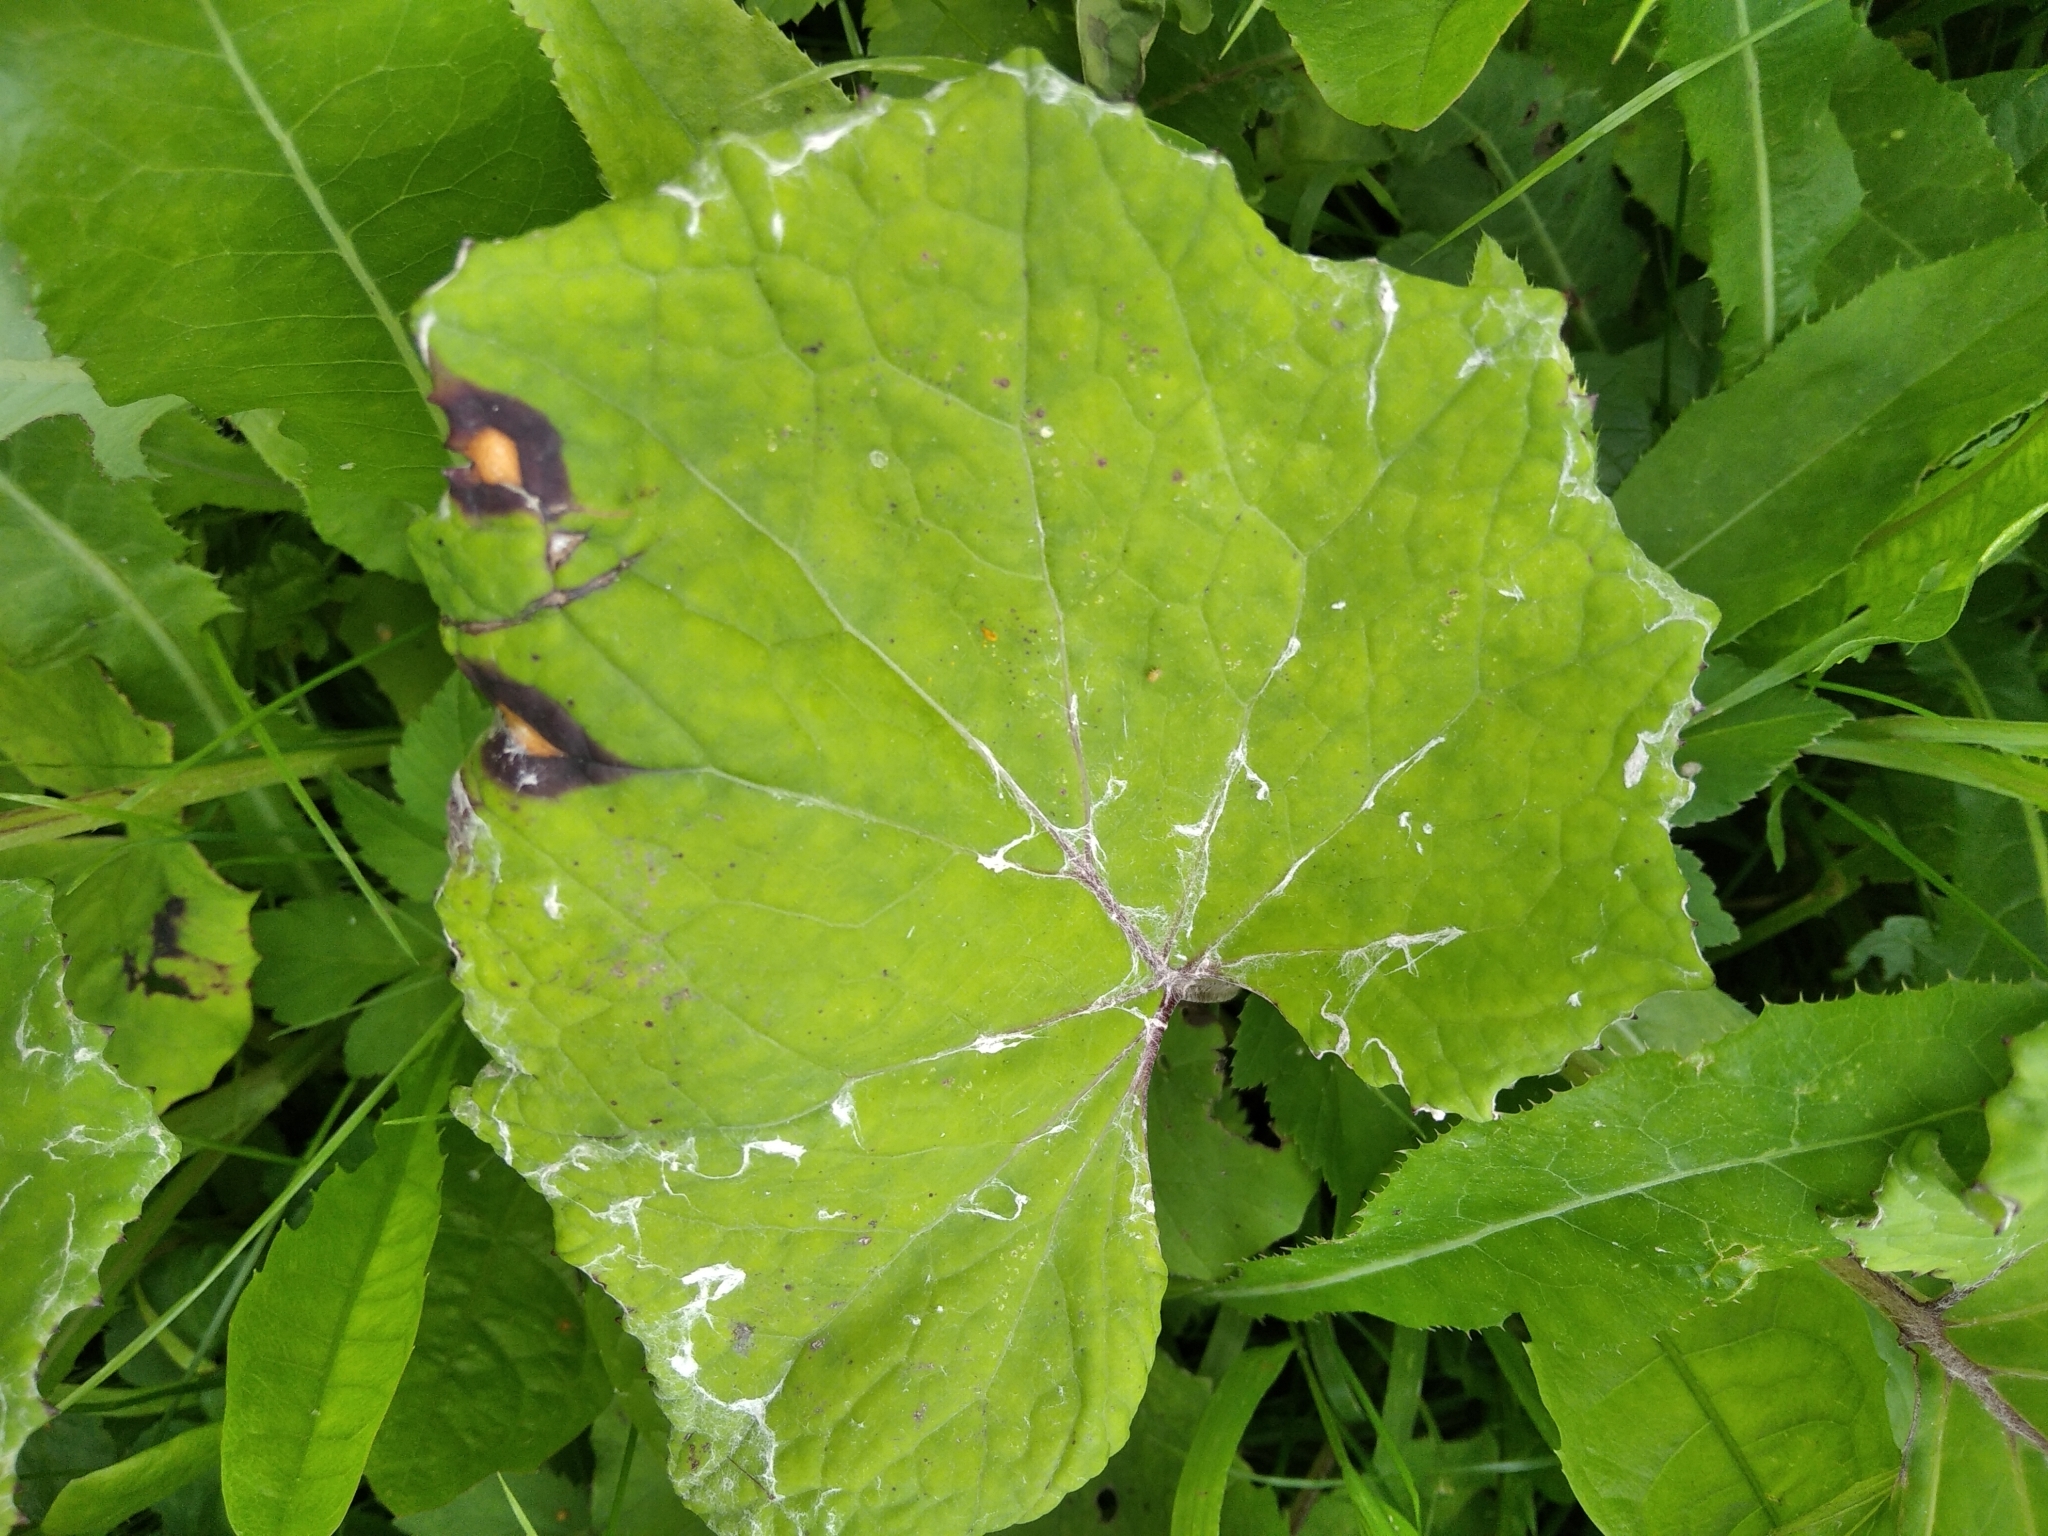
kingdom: Plantae
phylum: Tracheophyta
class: Magnoliopsida
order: Asterales
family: Asteraceae
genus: Tussilago
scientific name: Tussilago farfara
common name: Coltsfoot
